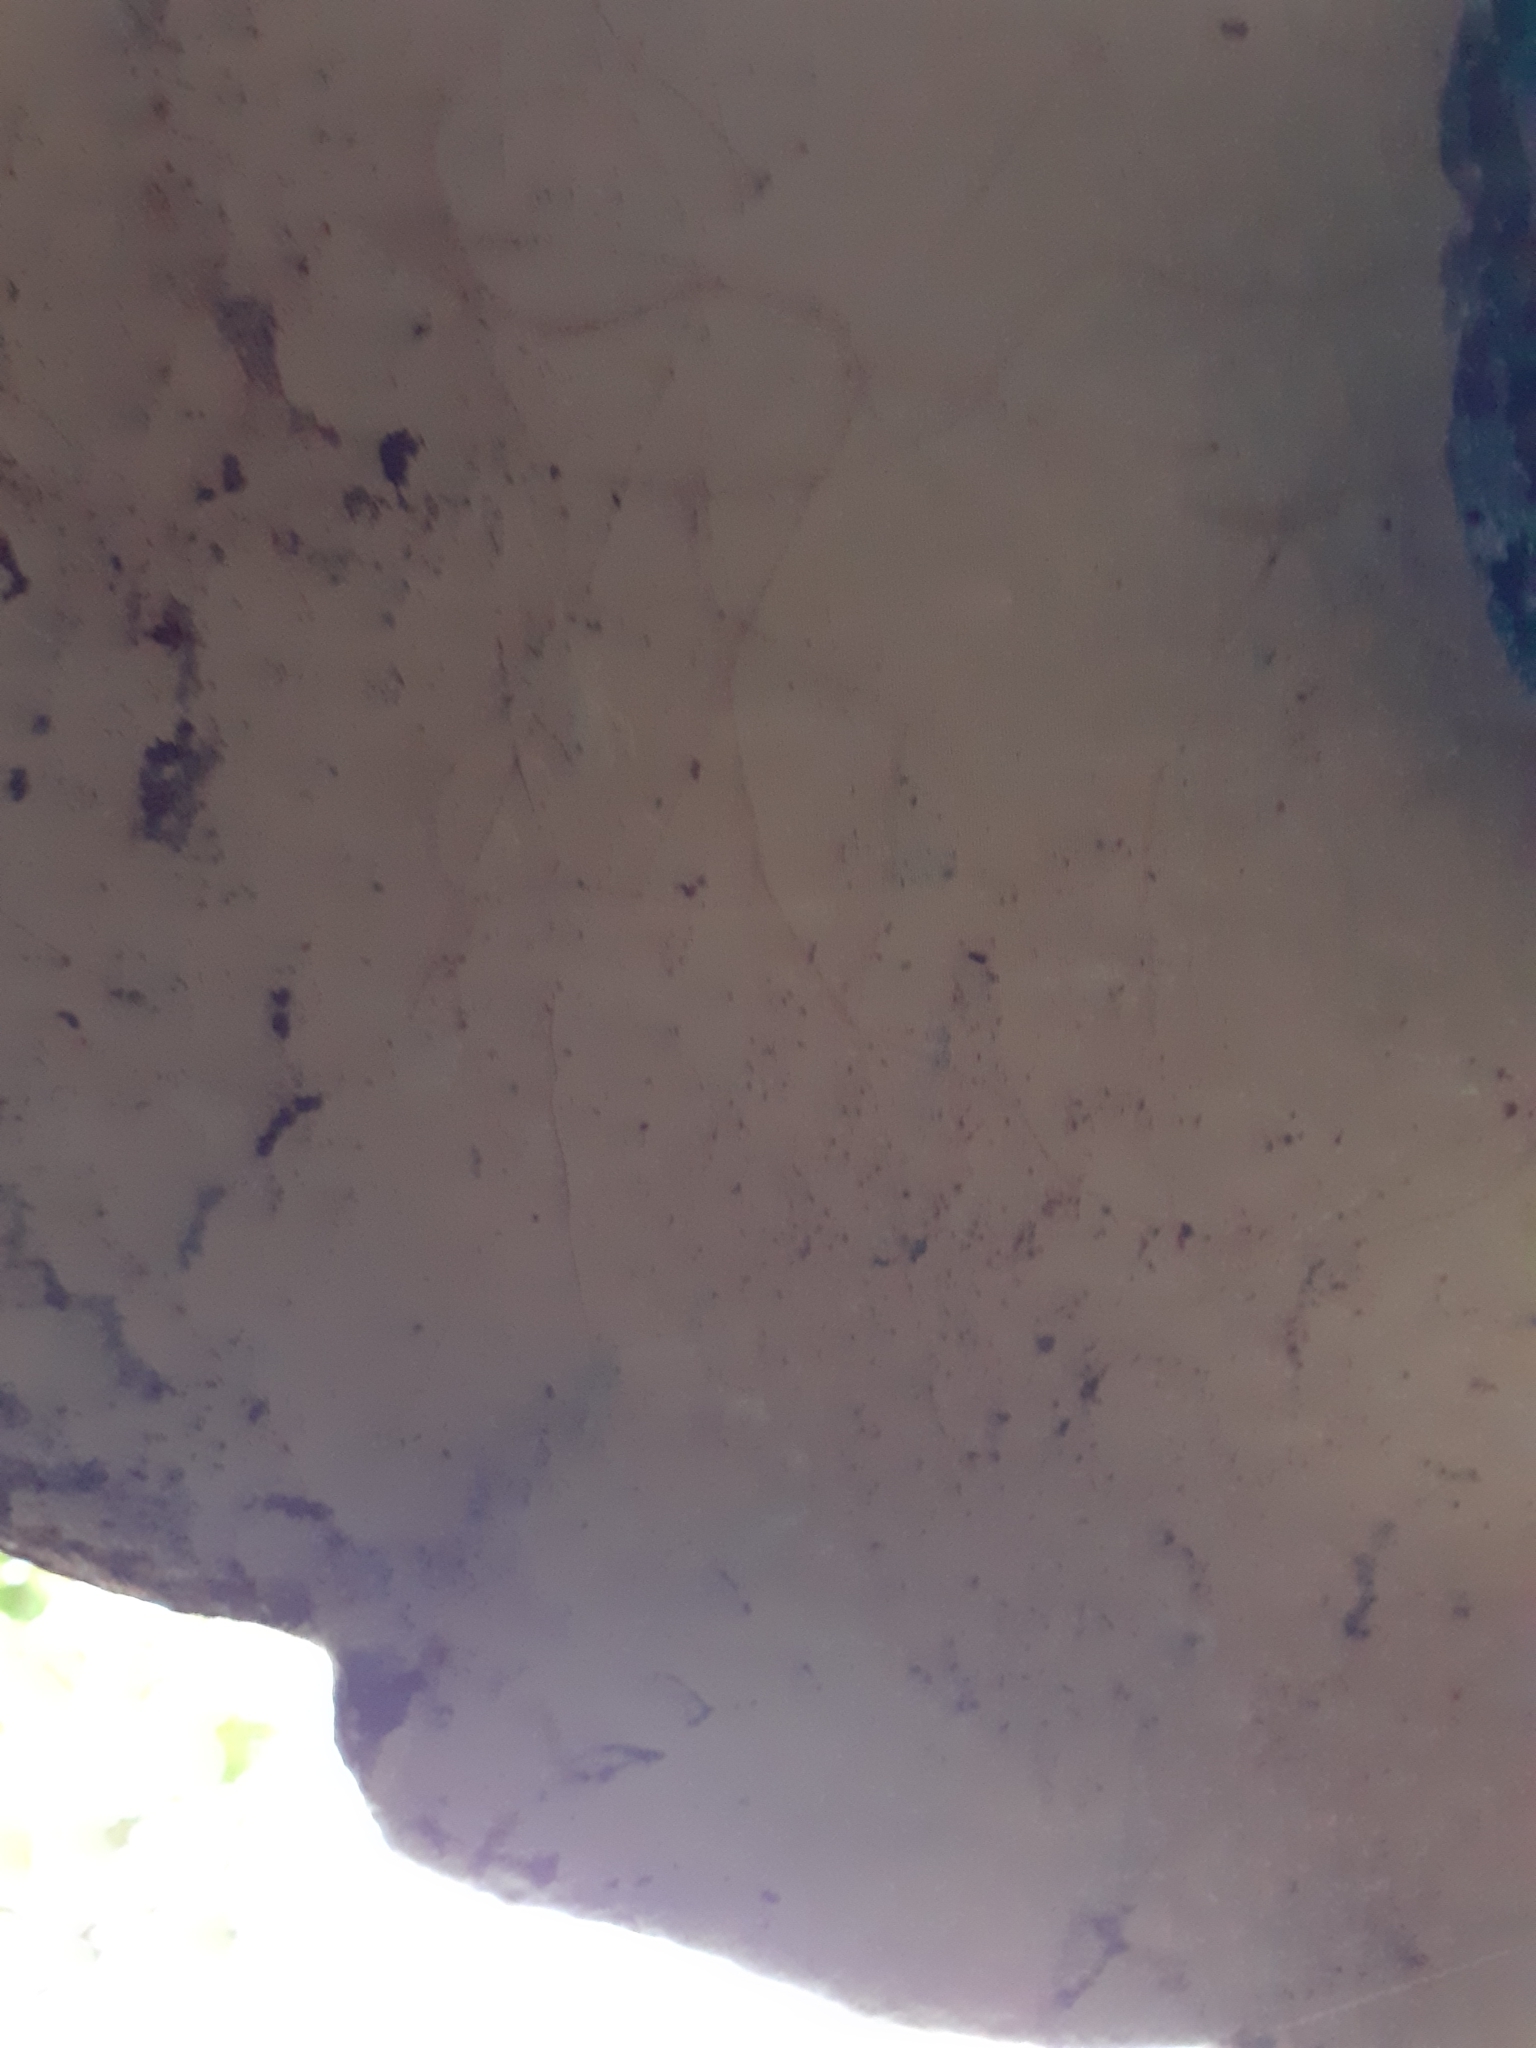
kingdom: Fungi
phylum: Basidiomycota
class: Agaricomycetes
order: Polyporales
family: Polyporaceae
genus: Ganoderma
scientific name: Ganoderma applanatum
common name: Artist's bracket
